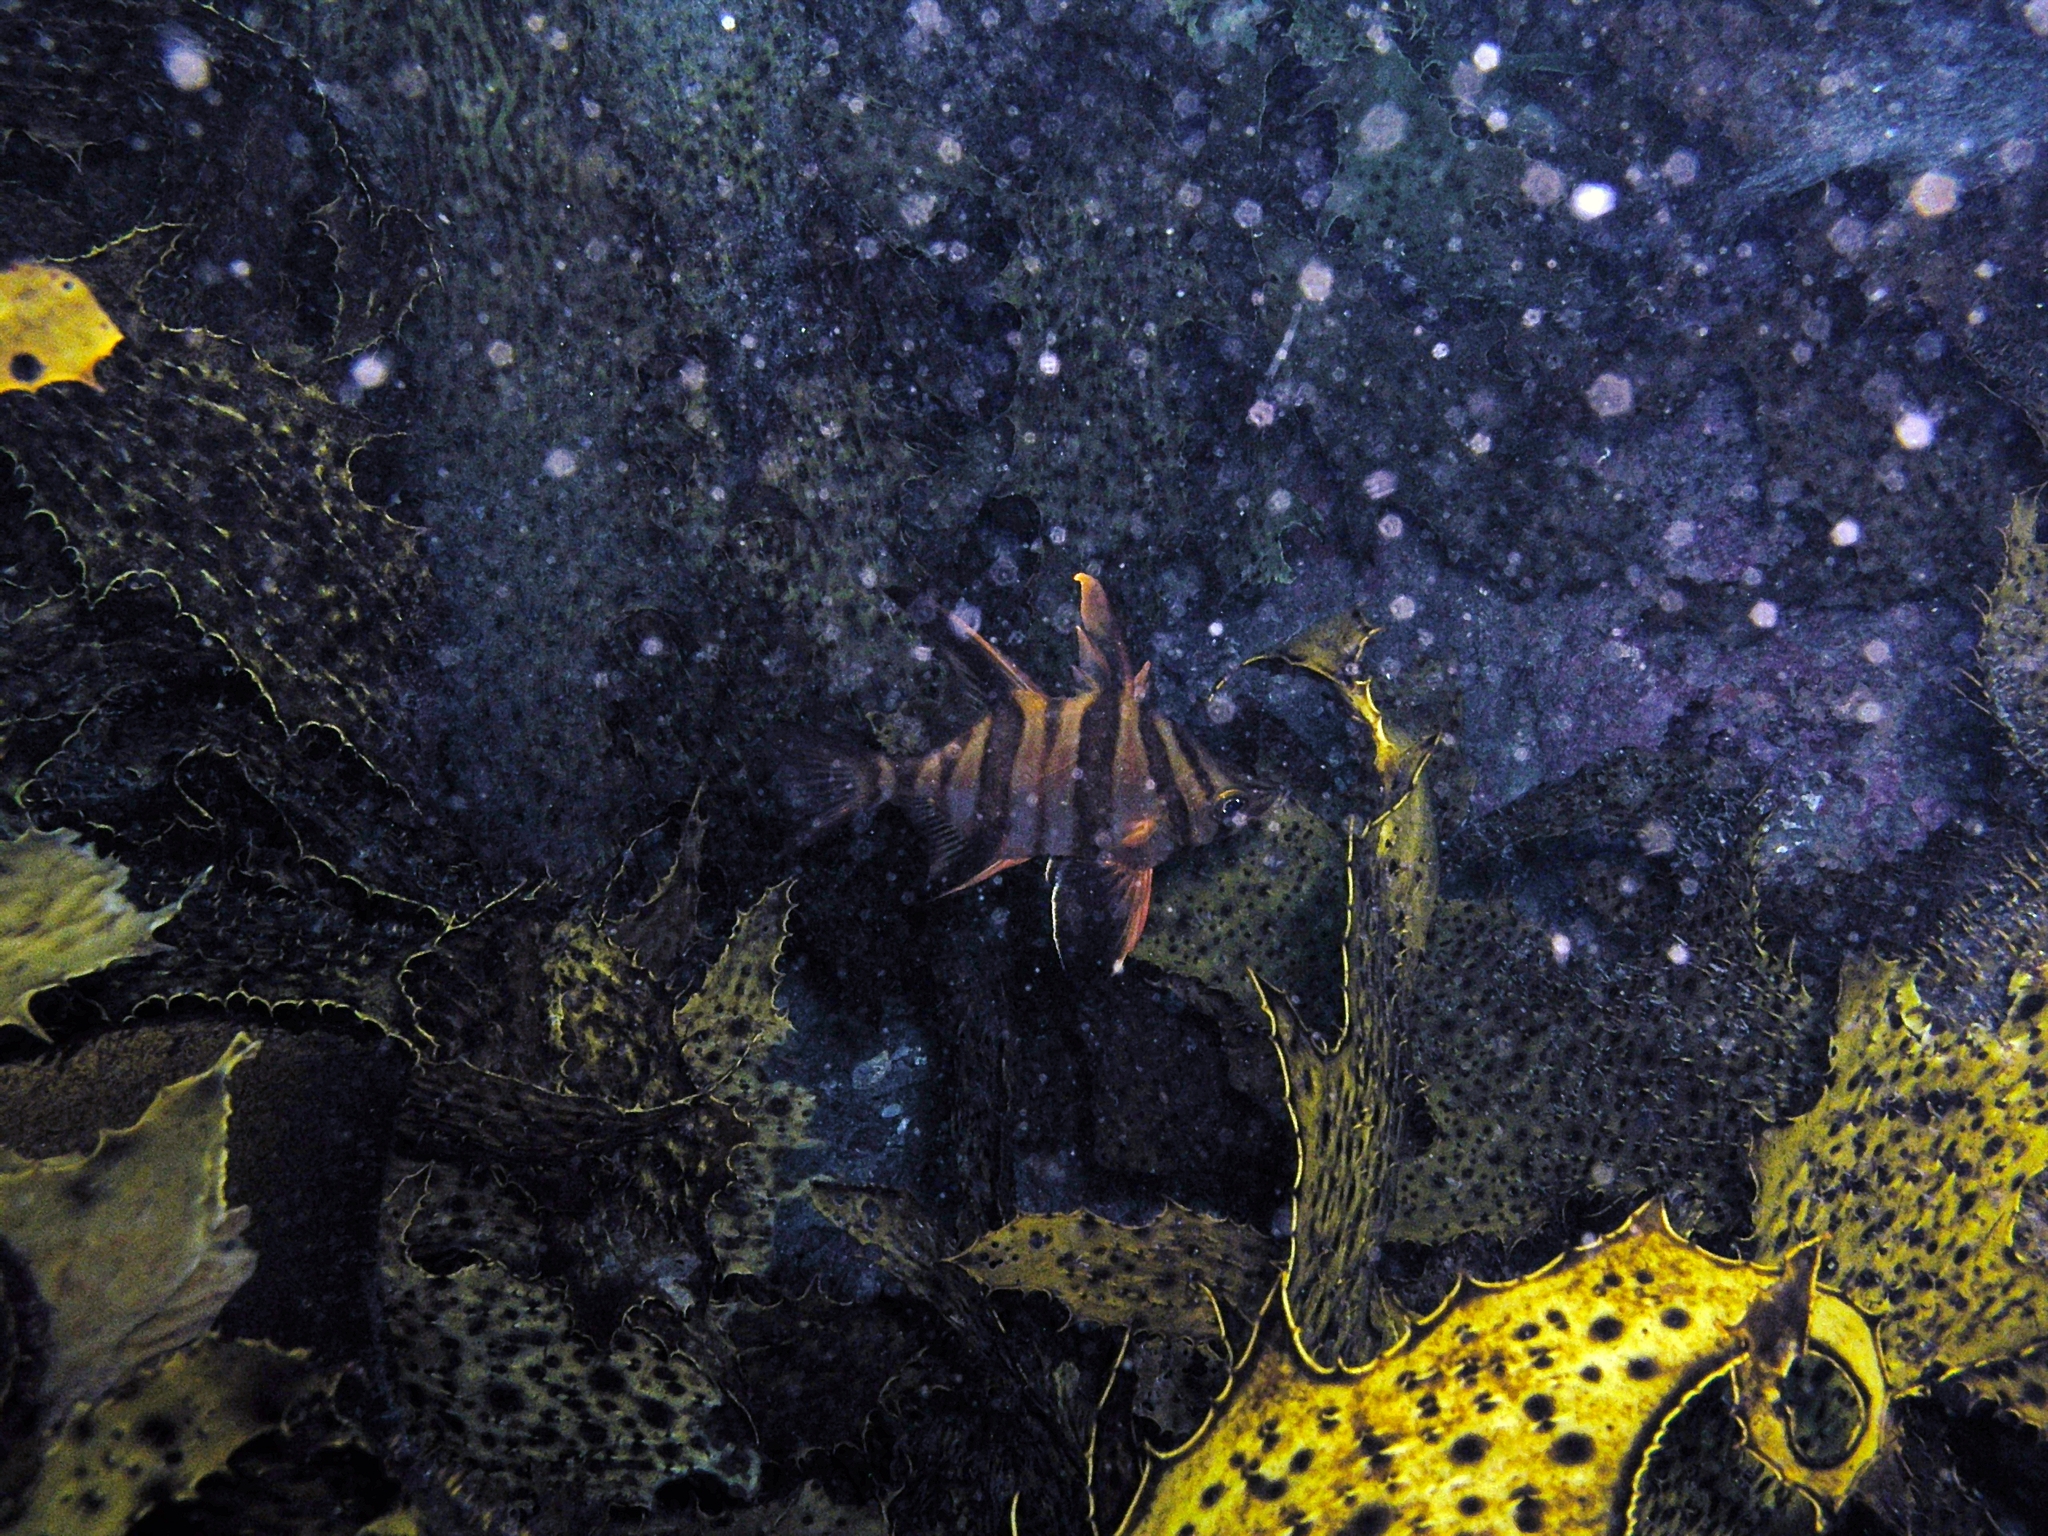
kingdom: Animalia
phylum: Chordata
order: Perciformes
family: Enoplosidae
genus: Enoplosus
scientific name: Enoplosus armatus
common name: Old wife
